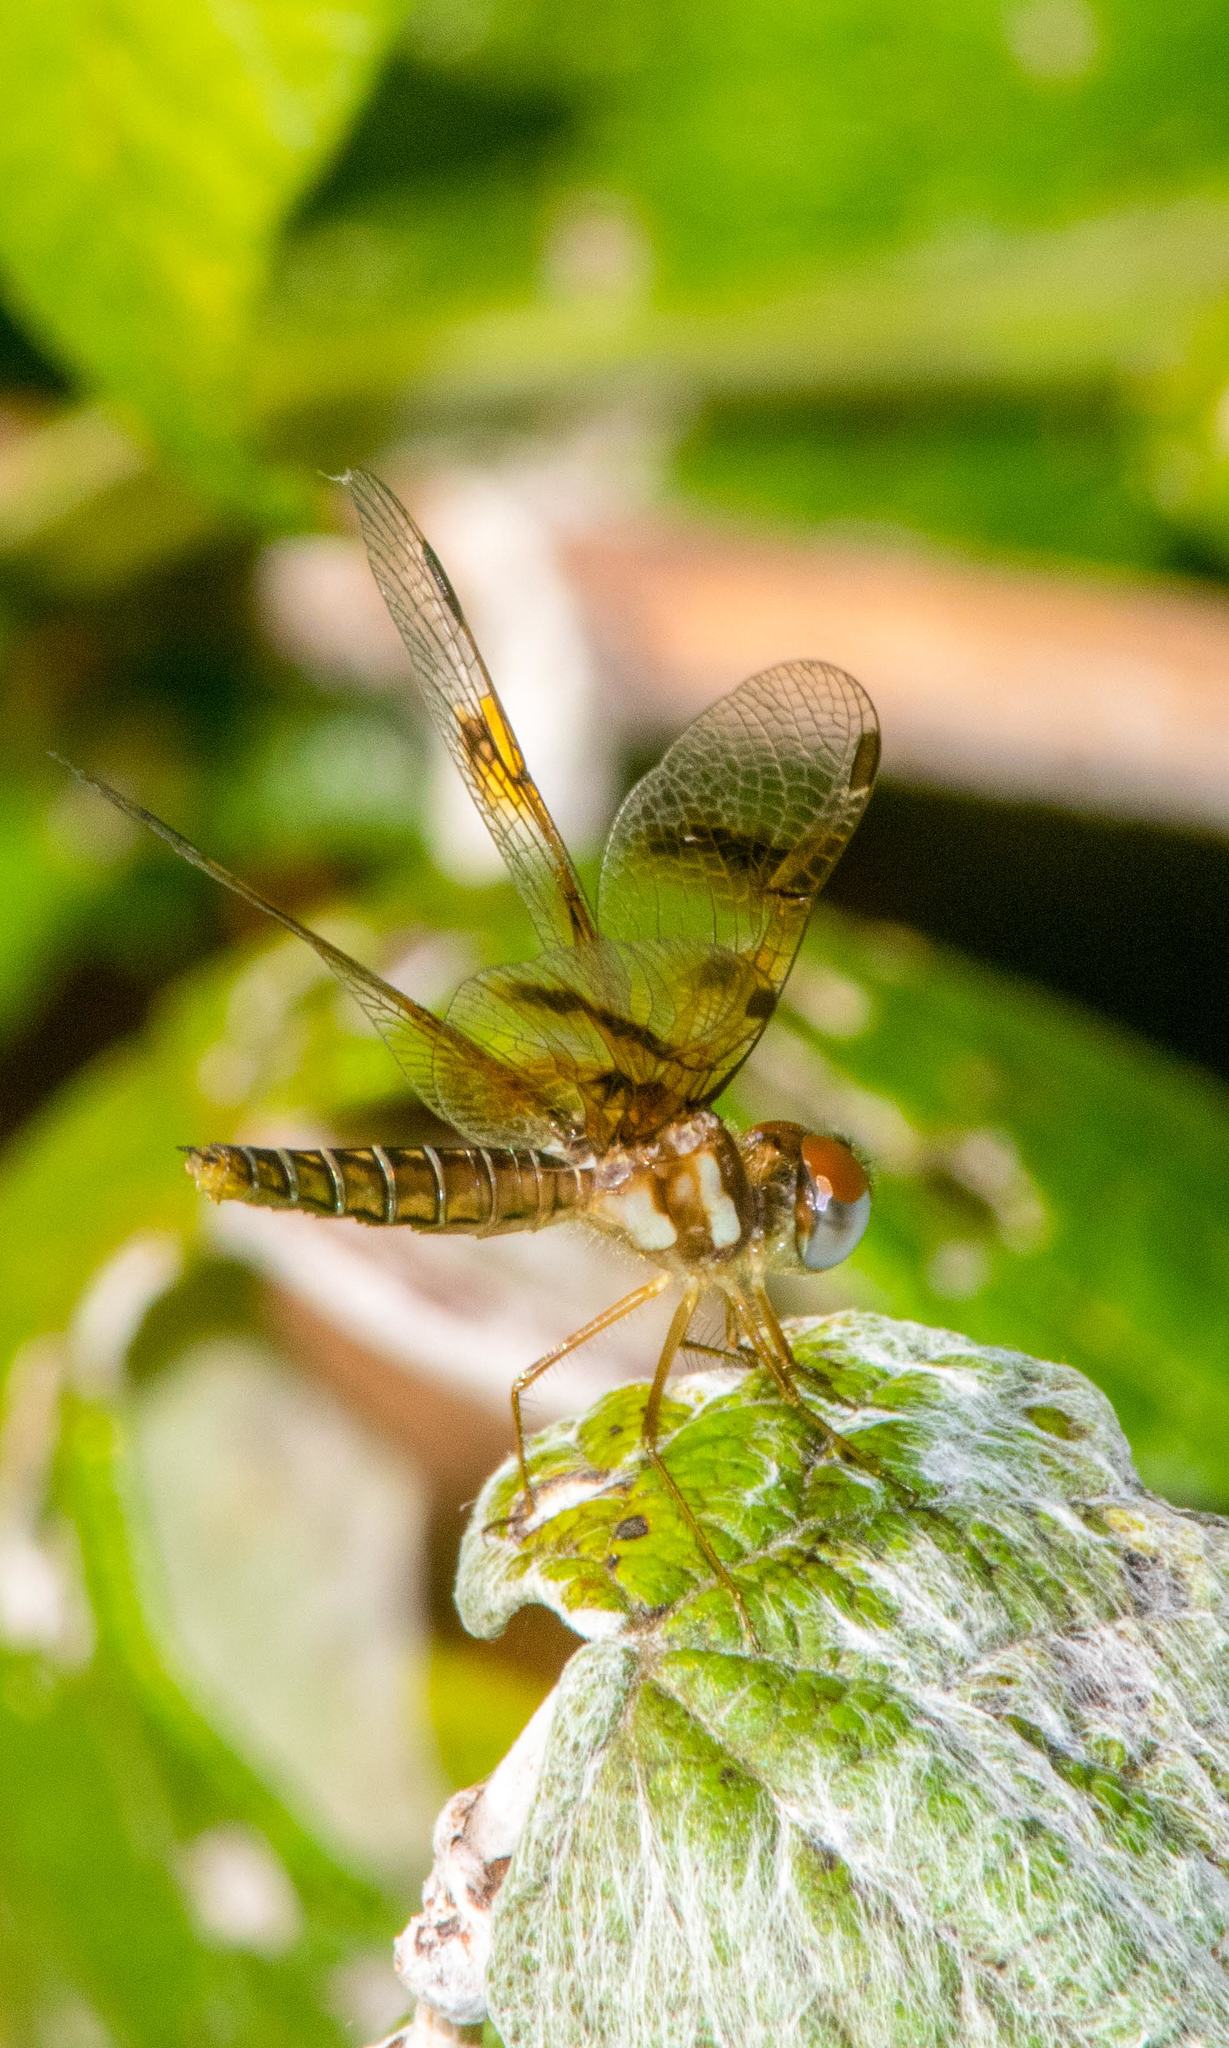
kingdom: Animalia
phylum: Arthropoda
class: Insecta
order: Odonata
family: Libellulidae
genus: Perithemis
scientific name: Perithemis tenera
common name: Eastern amberwing
